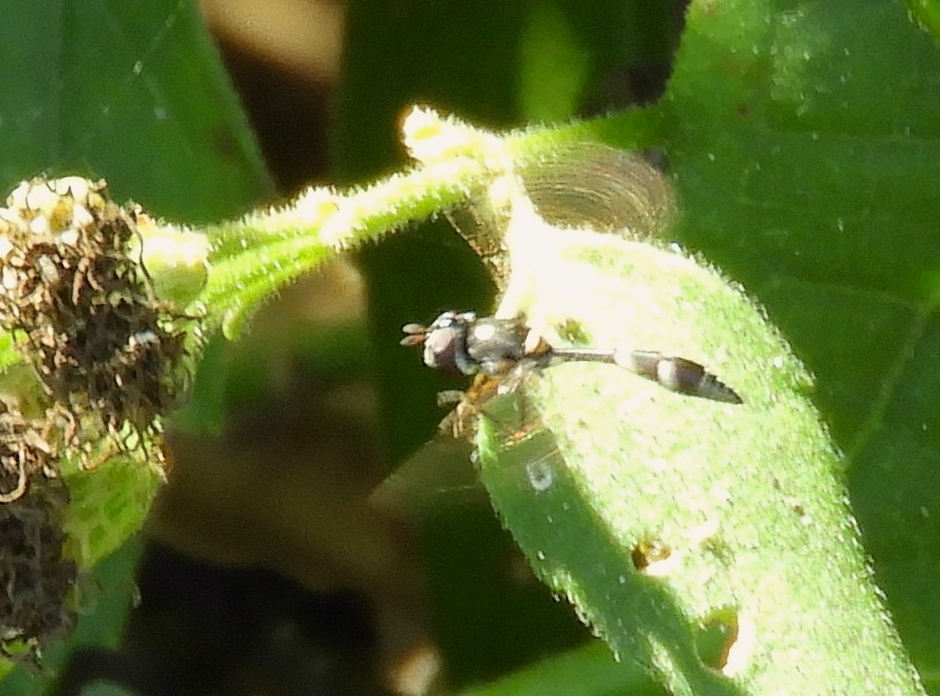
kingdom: Animalia
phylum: Arthropoda
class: Insecta
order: Diptera
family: Syrphidae
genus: Dioprosopa
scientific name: Dioprosopa clavatus
